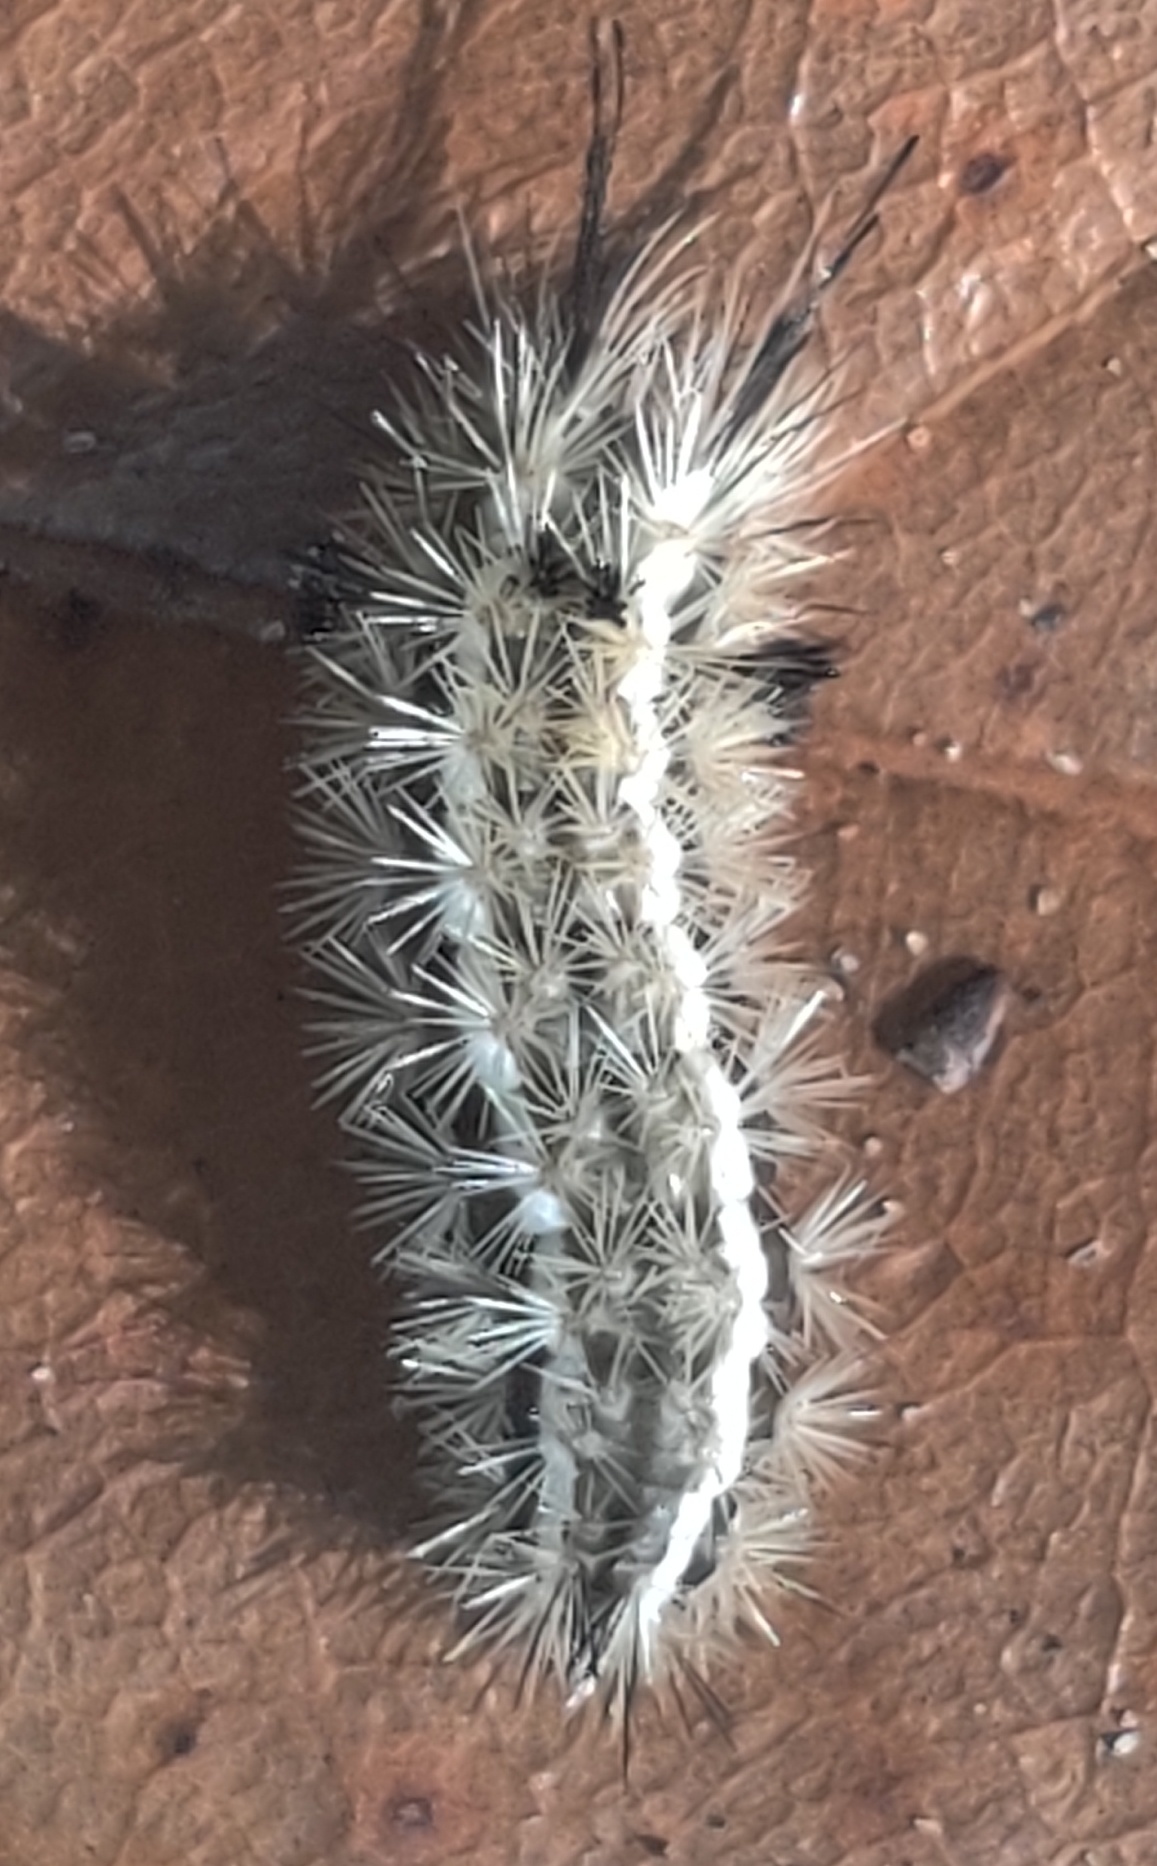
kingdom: Animalia
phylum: Arthropoda
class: Insecta
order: Lepidoptera
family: Erebidae
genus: Dahana
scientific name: Dahana atripennis
